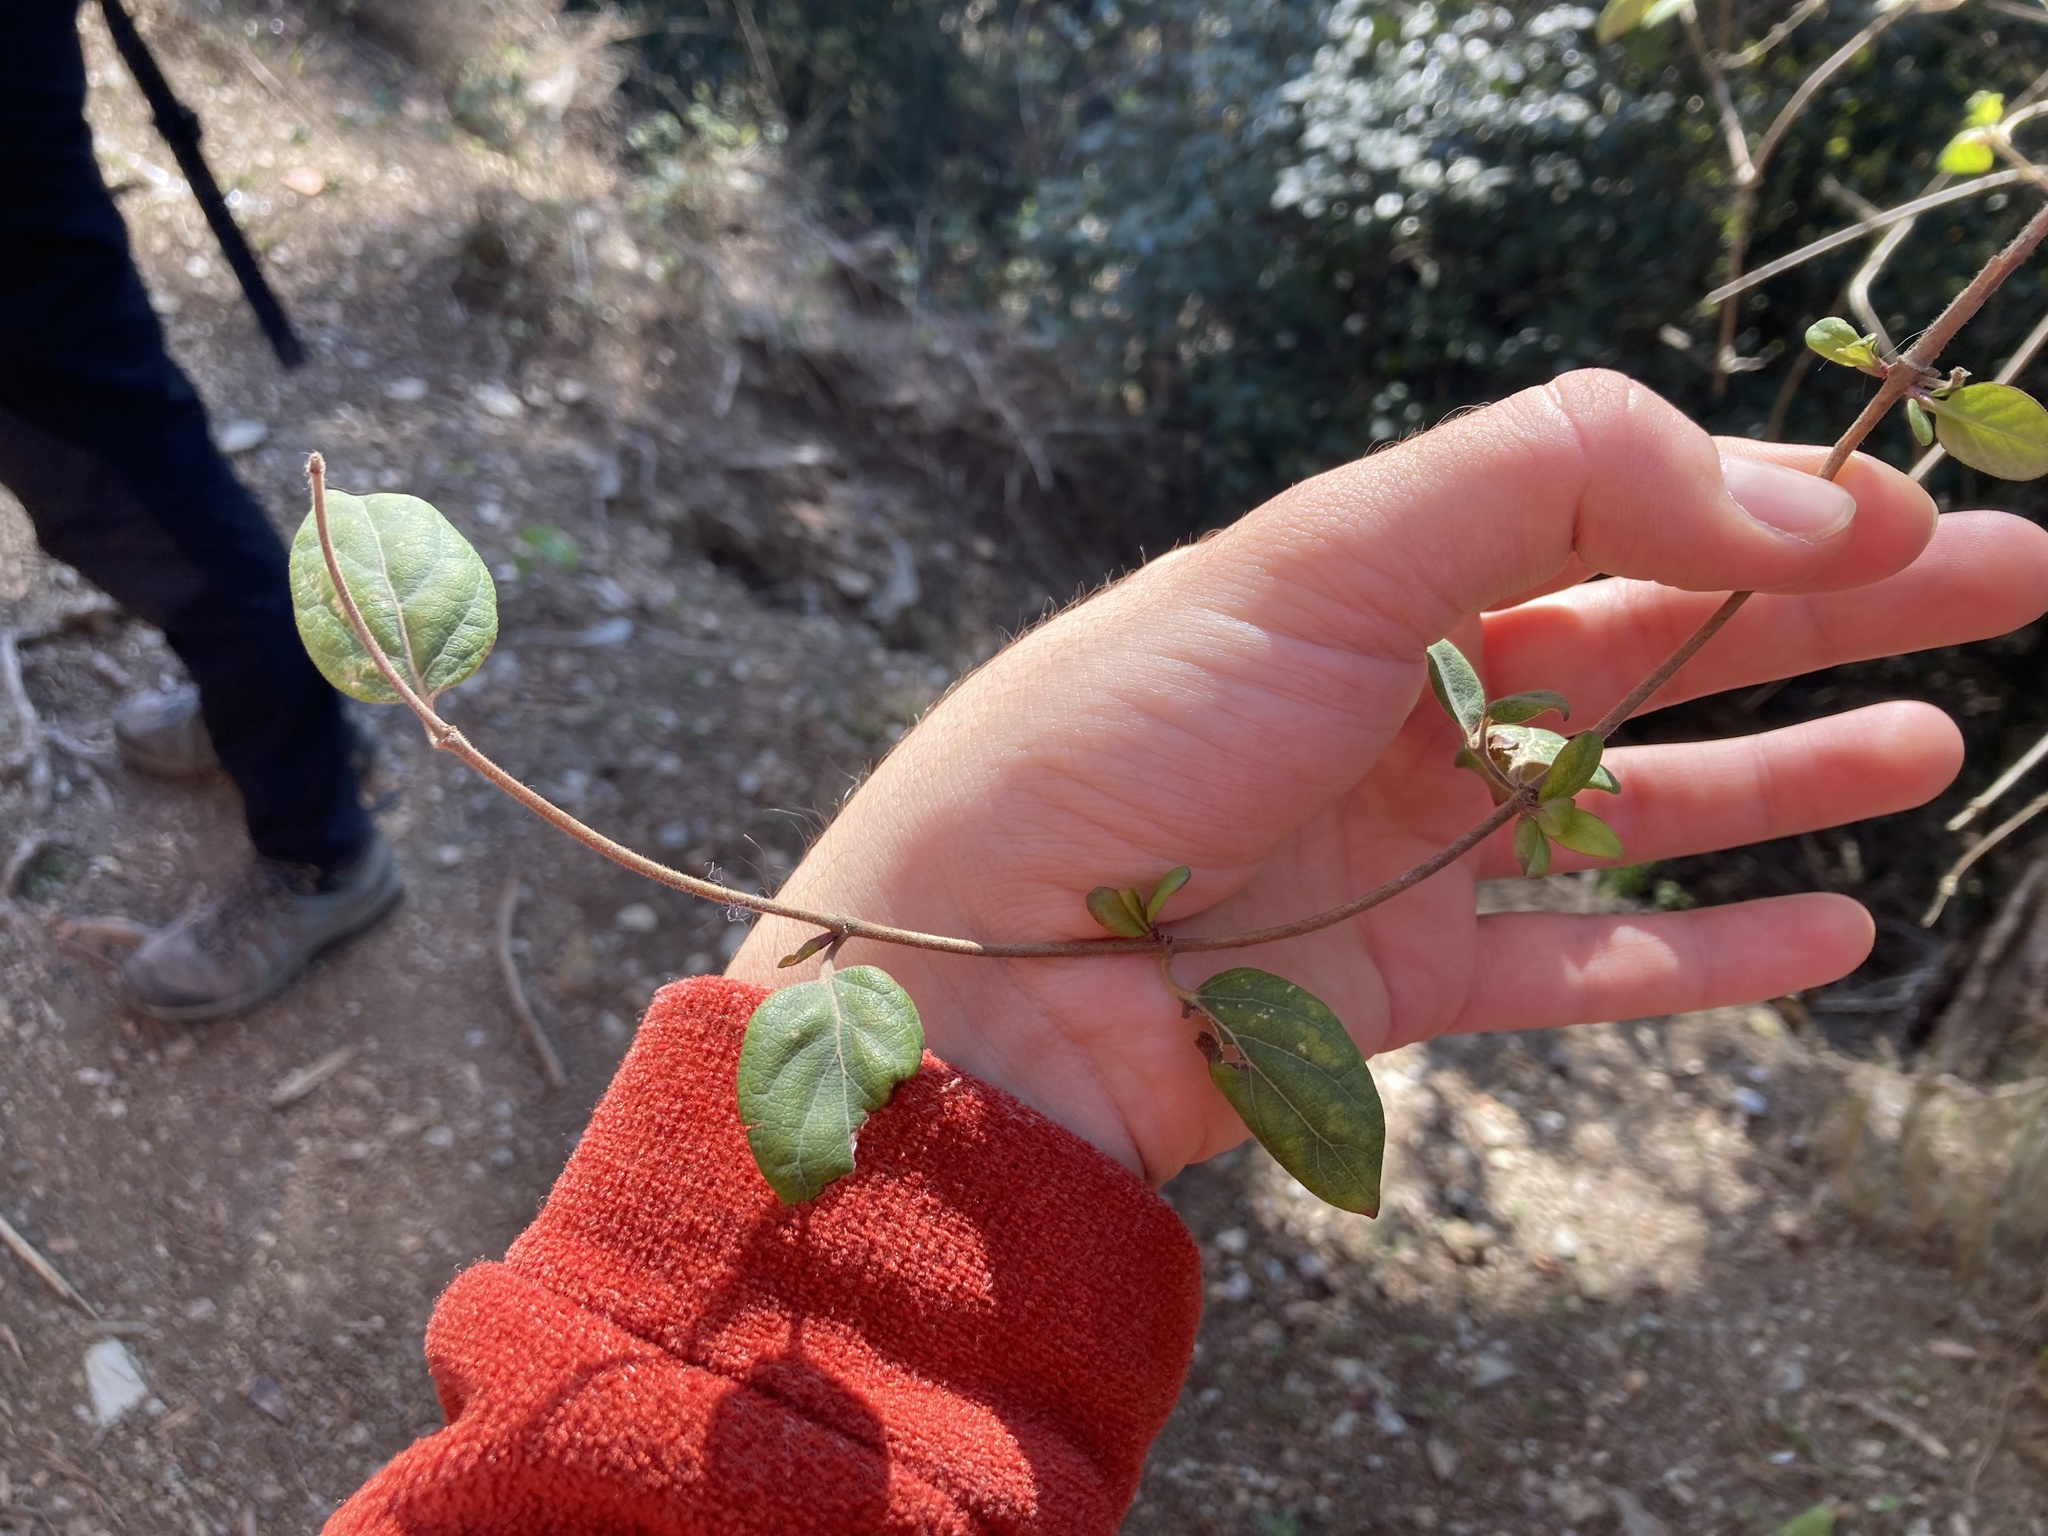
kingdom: Plantae
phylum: Tracheophyta
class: Magnoliopsida
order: Dipsacales
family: Caprifoliaceae
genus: Lonicera
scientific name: Lonicera japonica
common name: Japanese honeysuckle
